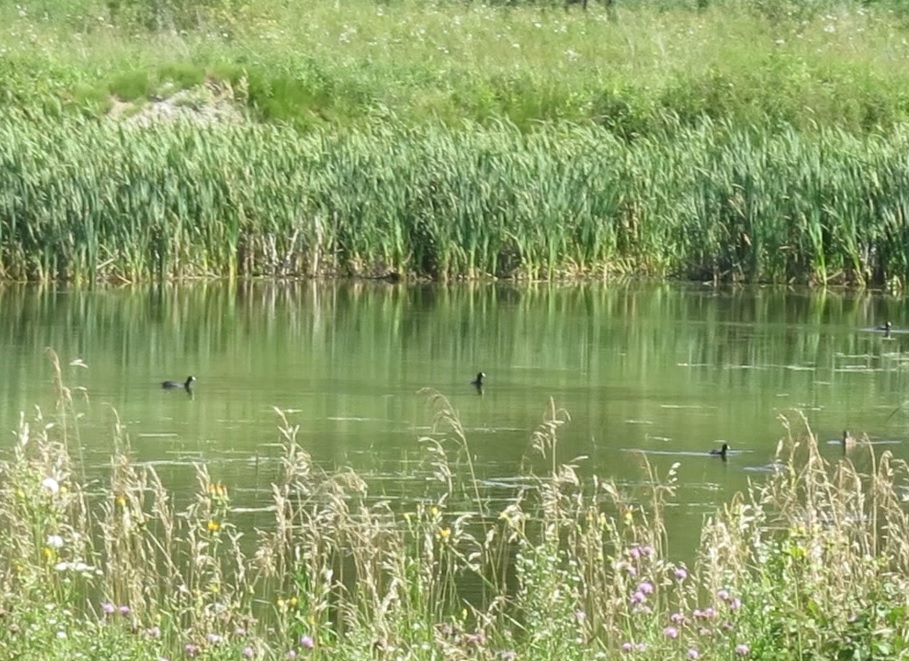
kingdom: Animalia
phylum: Chordata
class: Aves
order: Gruiformes
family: Rallidae
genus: Fulica
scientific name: Fulica americana
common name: American coot
